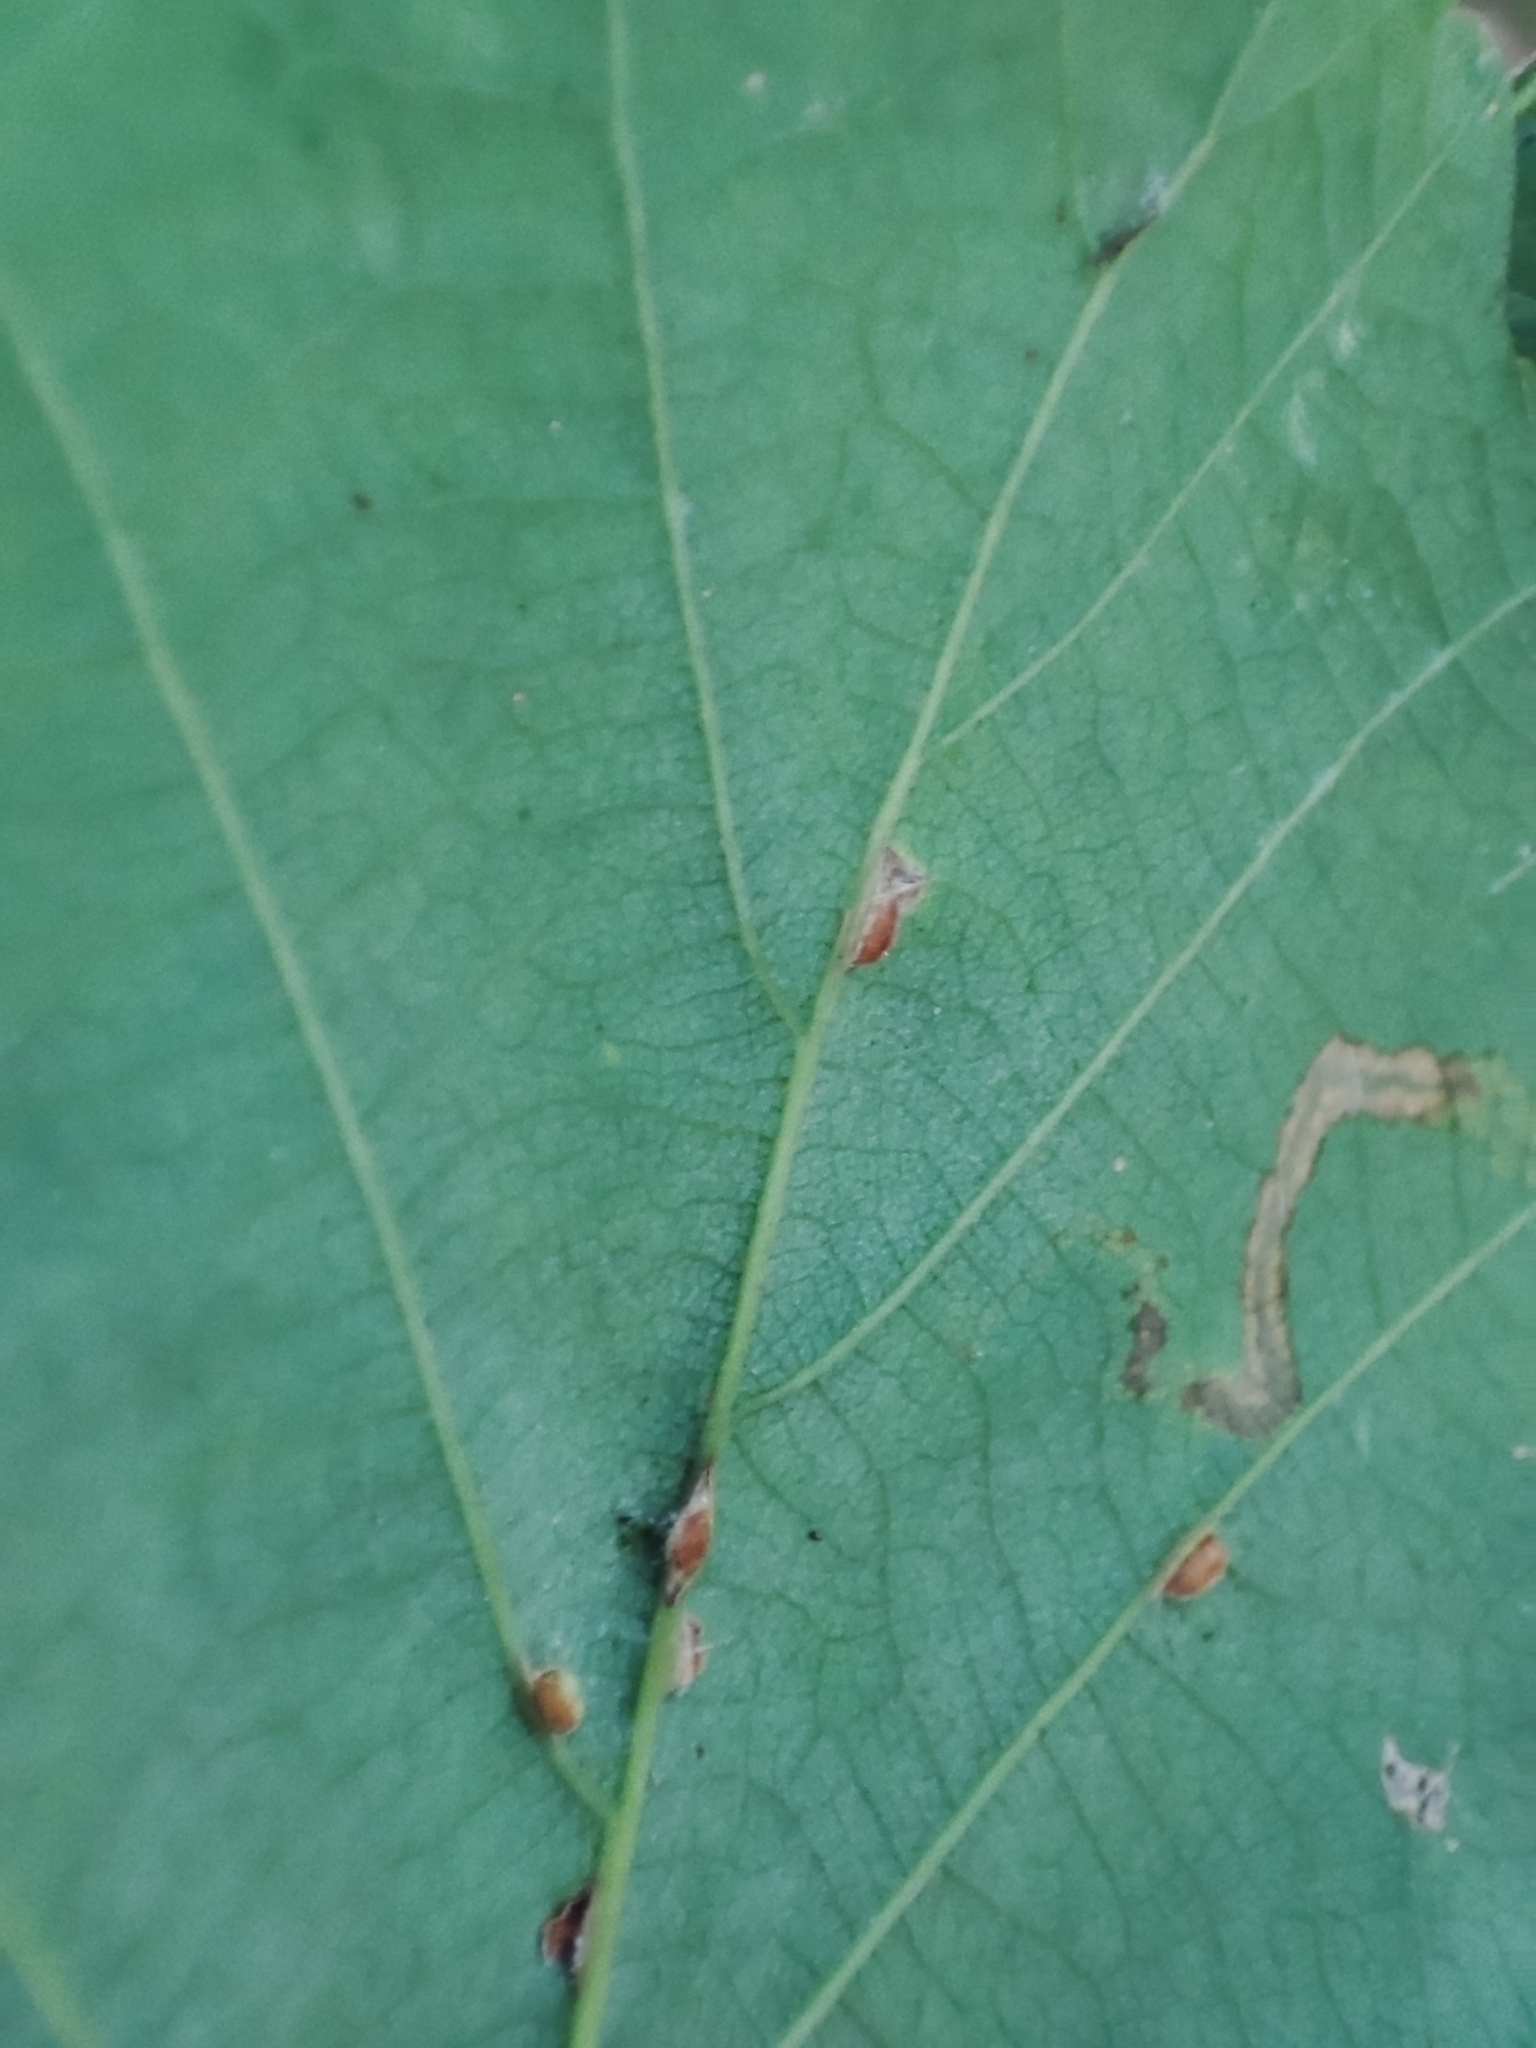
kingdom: Plantae
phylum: Tracheophyta
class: Magnoliopsida
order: Fagales
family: Fagaceae
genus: Quercus
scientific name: Quercus robur
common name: Pedunculate oak
